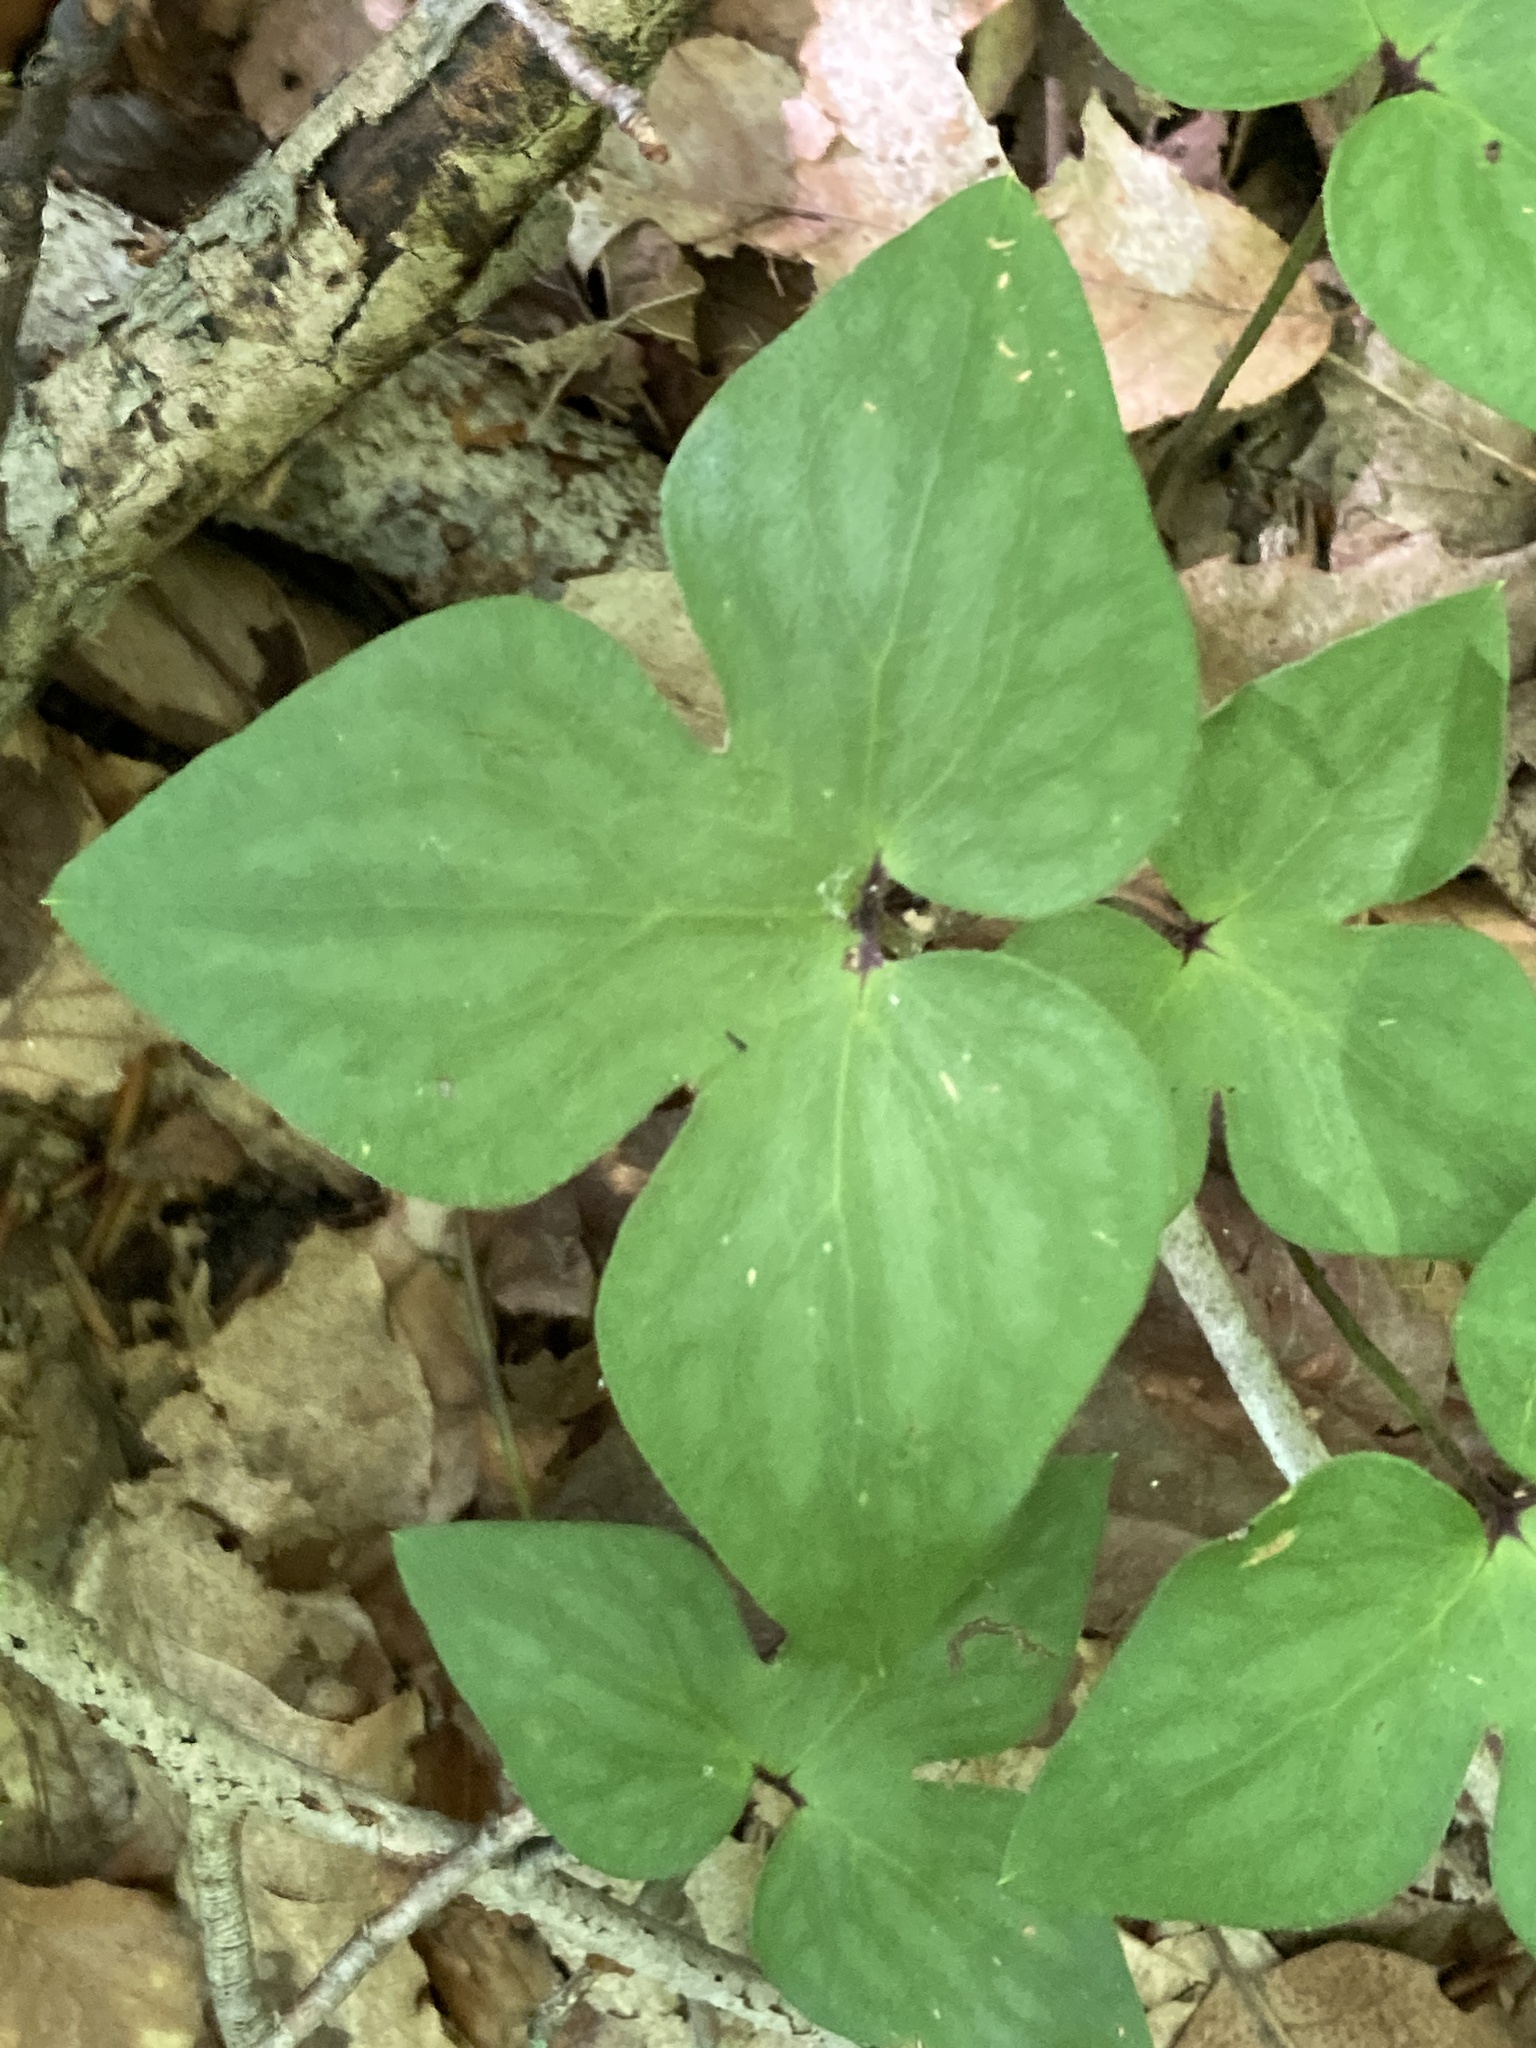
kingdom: Plantae
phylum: Tracheophyta
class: Magnoliopsida
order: Ranunculales
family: Ranunculaceae
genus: Hepatica
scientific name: Hepatica acutiloba
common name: Sharp-lobed hepatica
